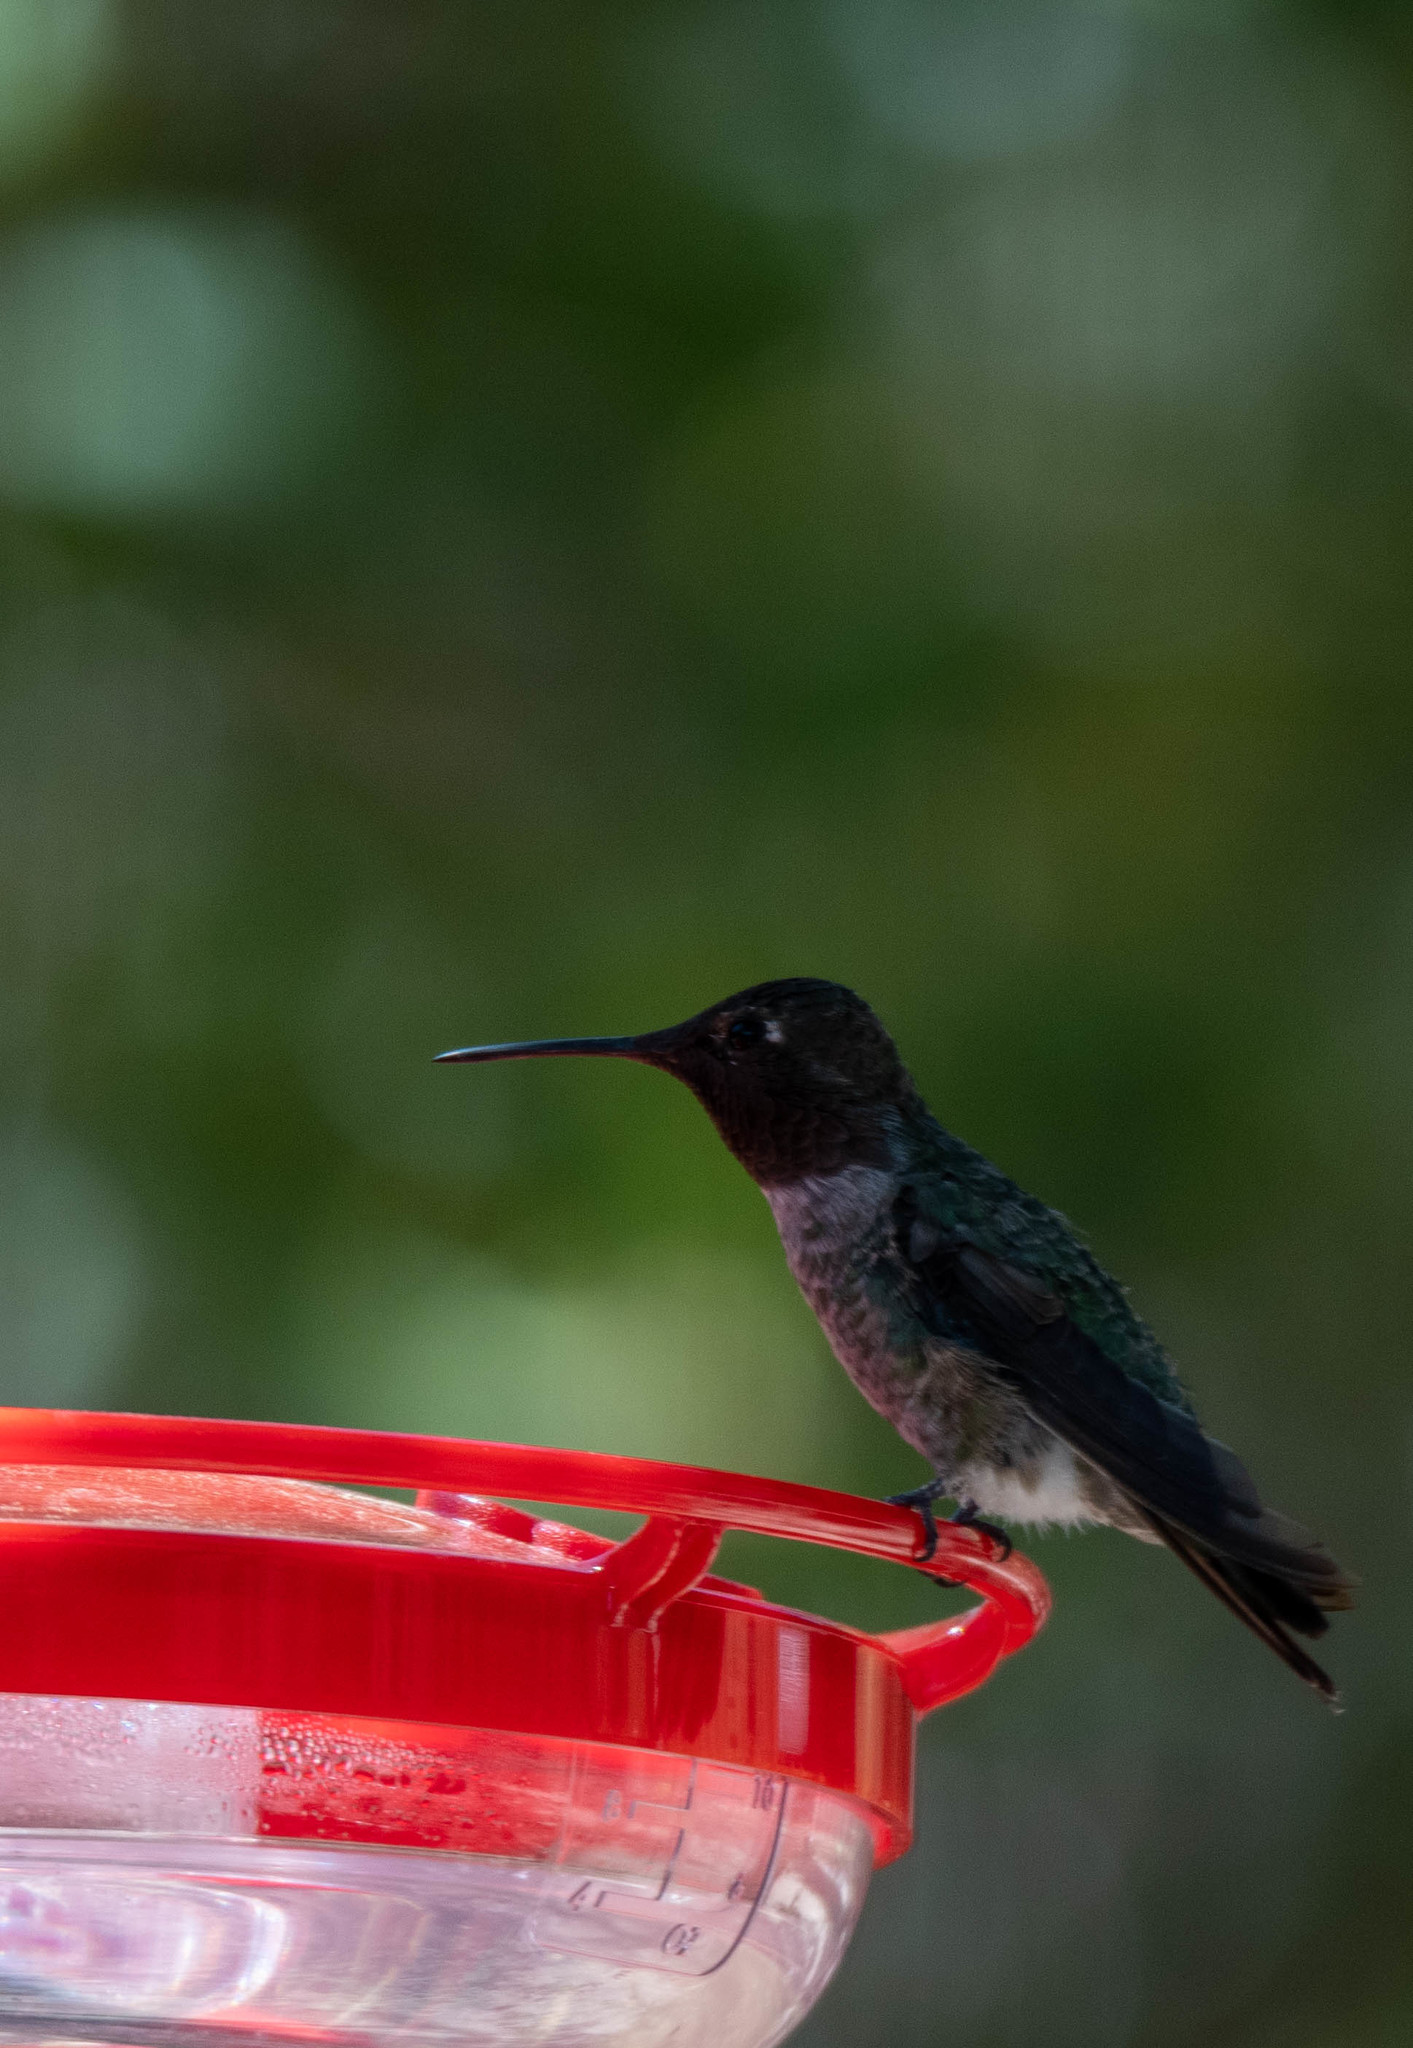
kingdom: Animalia
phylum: Chordata
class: Aves
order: Apodiformes
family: Trochilidae
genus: Calypte
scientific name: Calypte anna
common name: Anna's hummingbird
